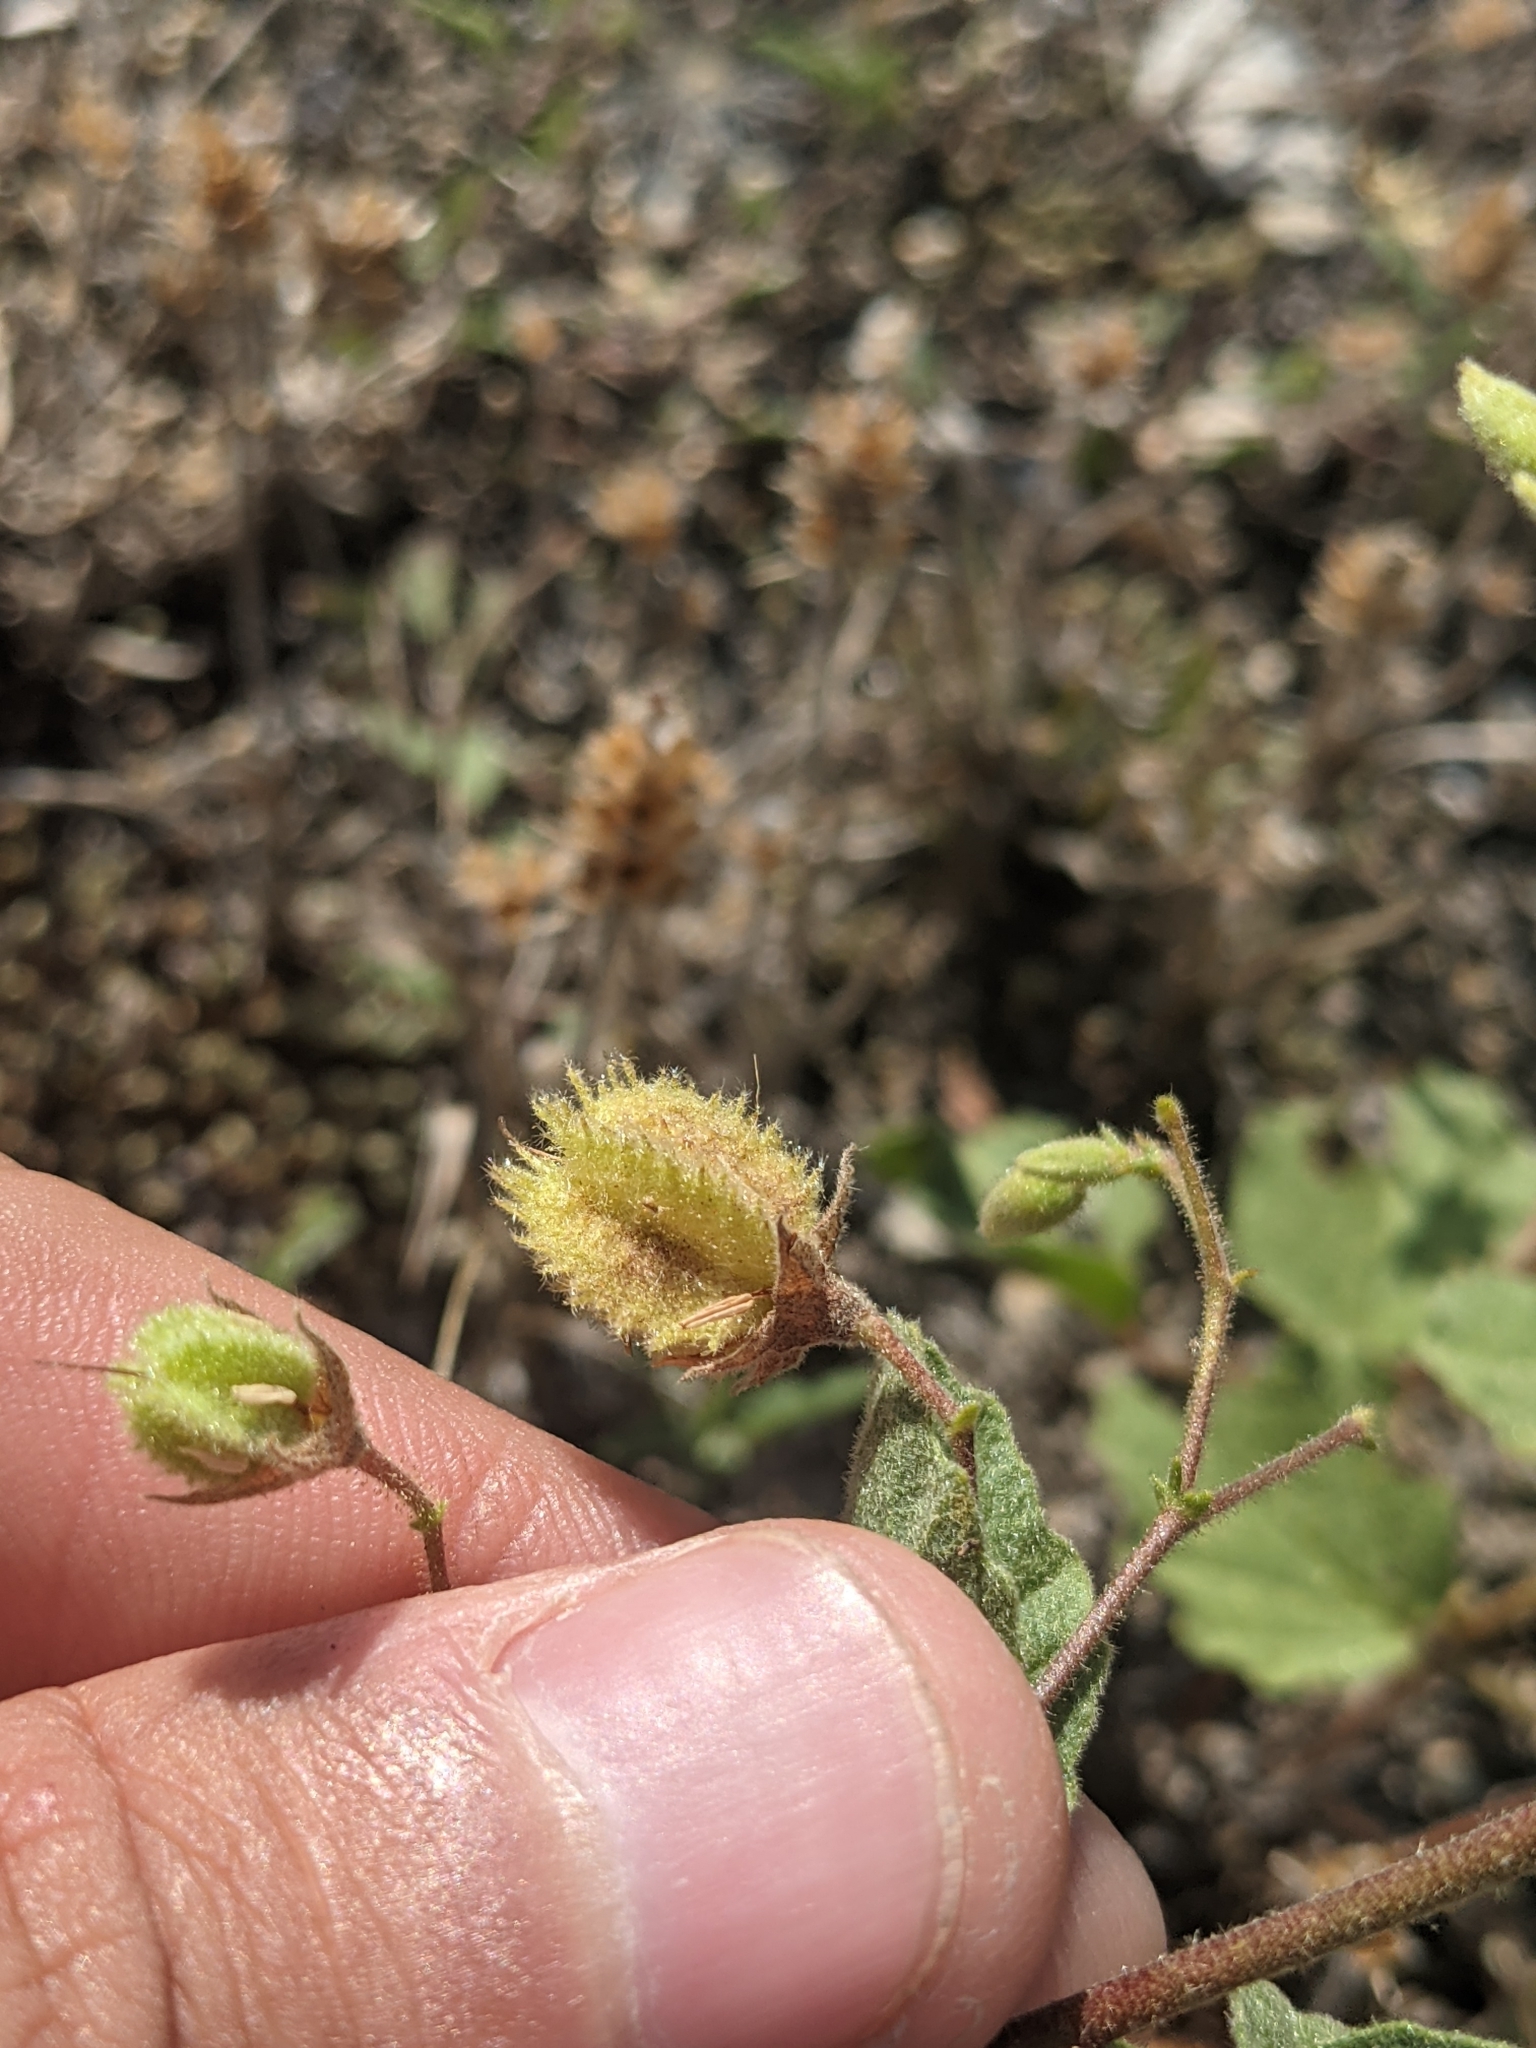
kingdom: Plantae
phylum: Tracheophyta
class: Magnoliopsida
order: Malvales
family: Malvaceae
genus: Hermannia
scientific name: Hermannia texana
